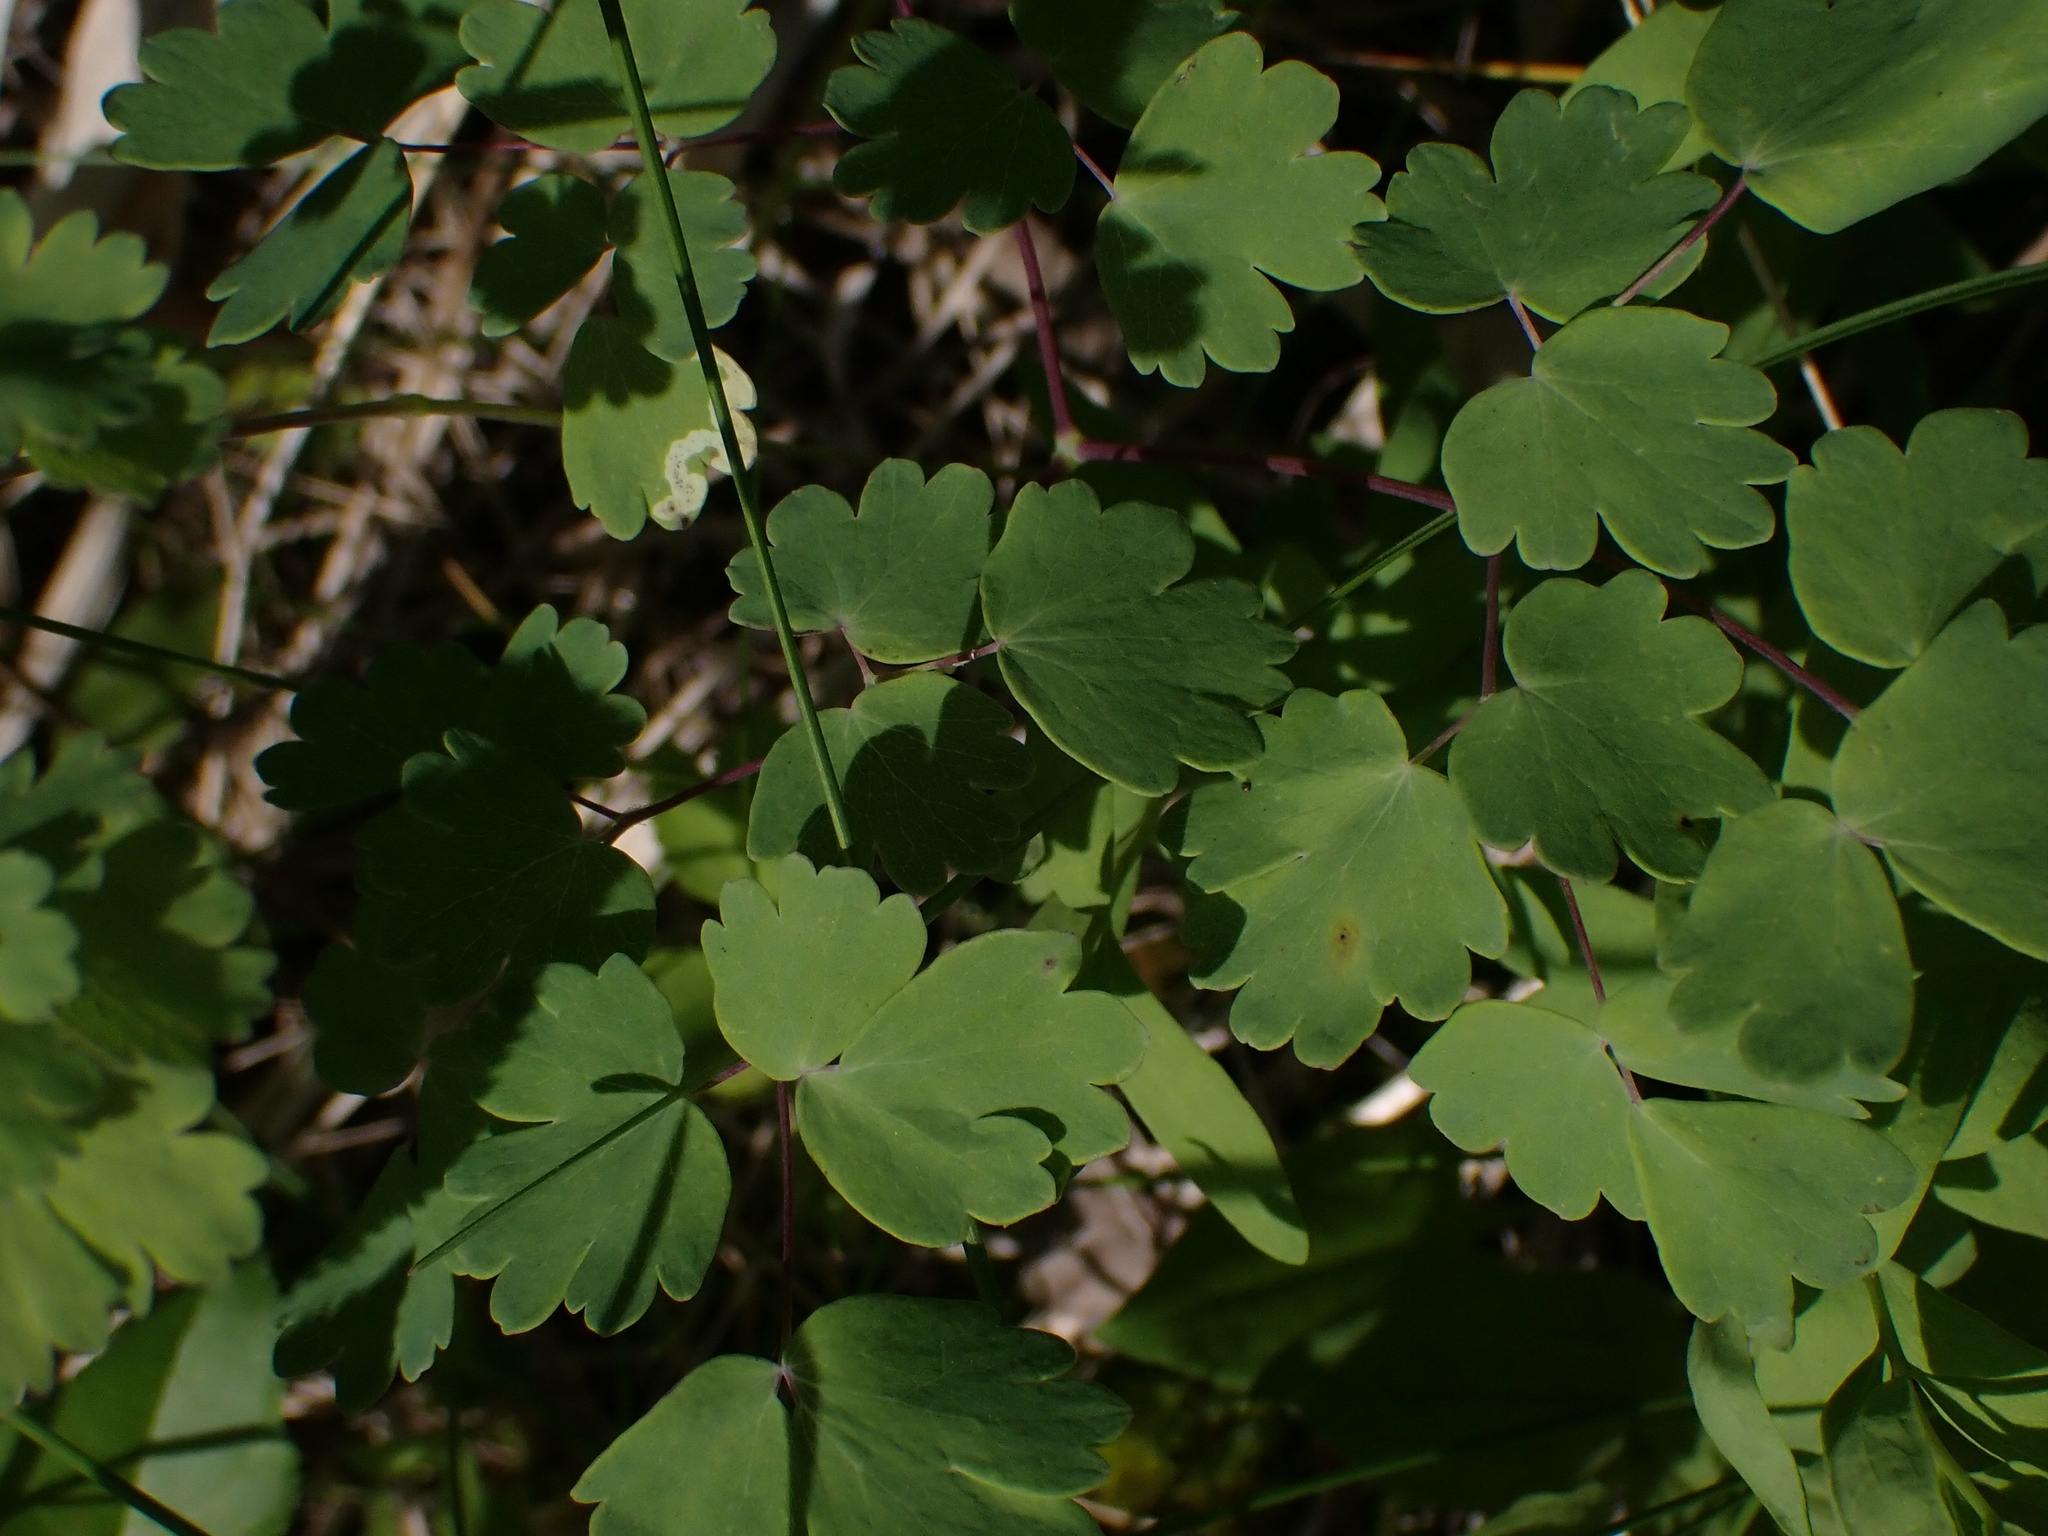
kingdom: Plantae
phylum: Tracheophyta
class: Magnoliopsida
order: Ranunculales
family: Ranunculaceae
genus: Thalictrum
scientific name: Thalictrum venulosum
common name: Early meadow-rue
